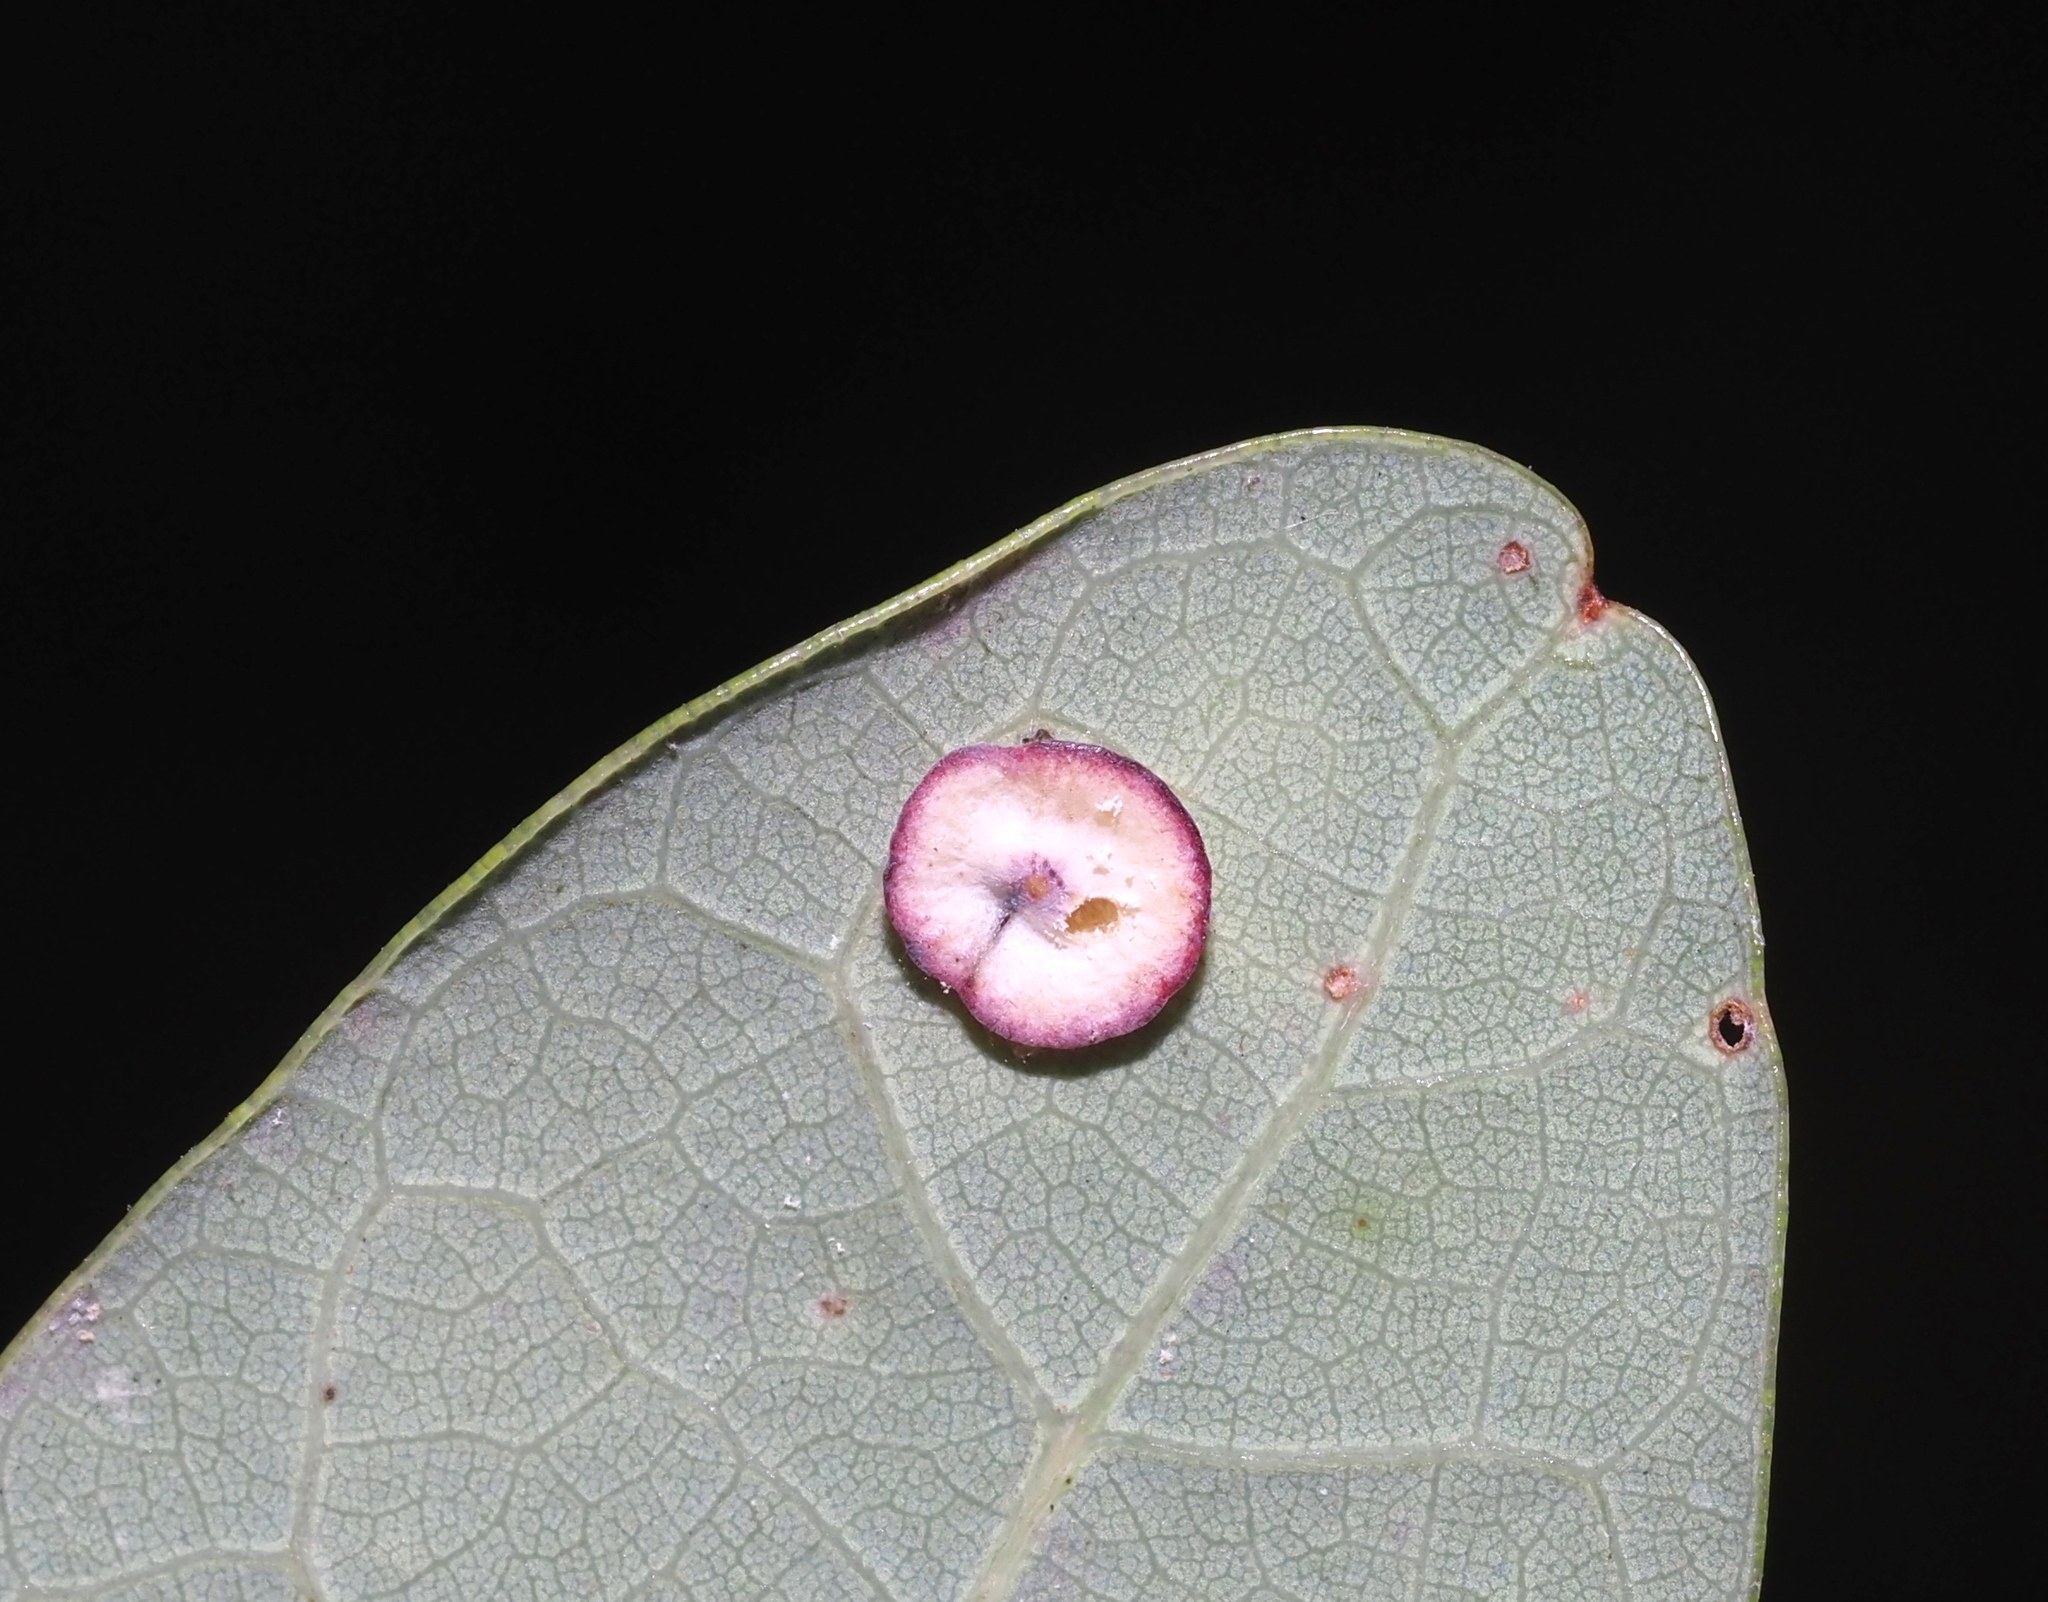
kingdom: Animalia
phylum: Arthropoda
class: Insecta
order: Hymenoptera
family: Cynipidae
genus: Phylloteras
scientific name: Phylloteras poculum
